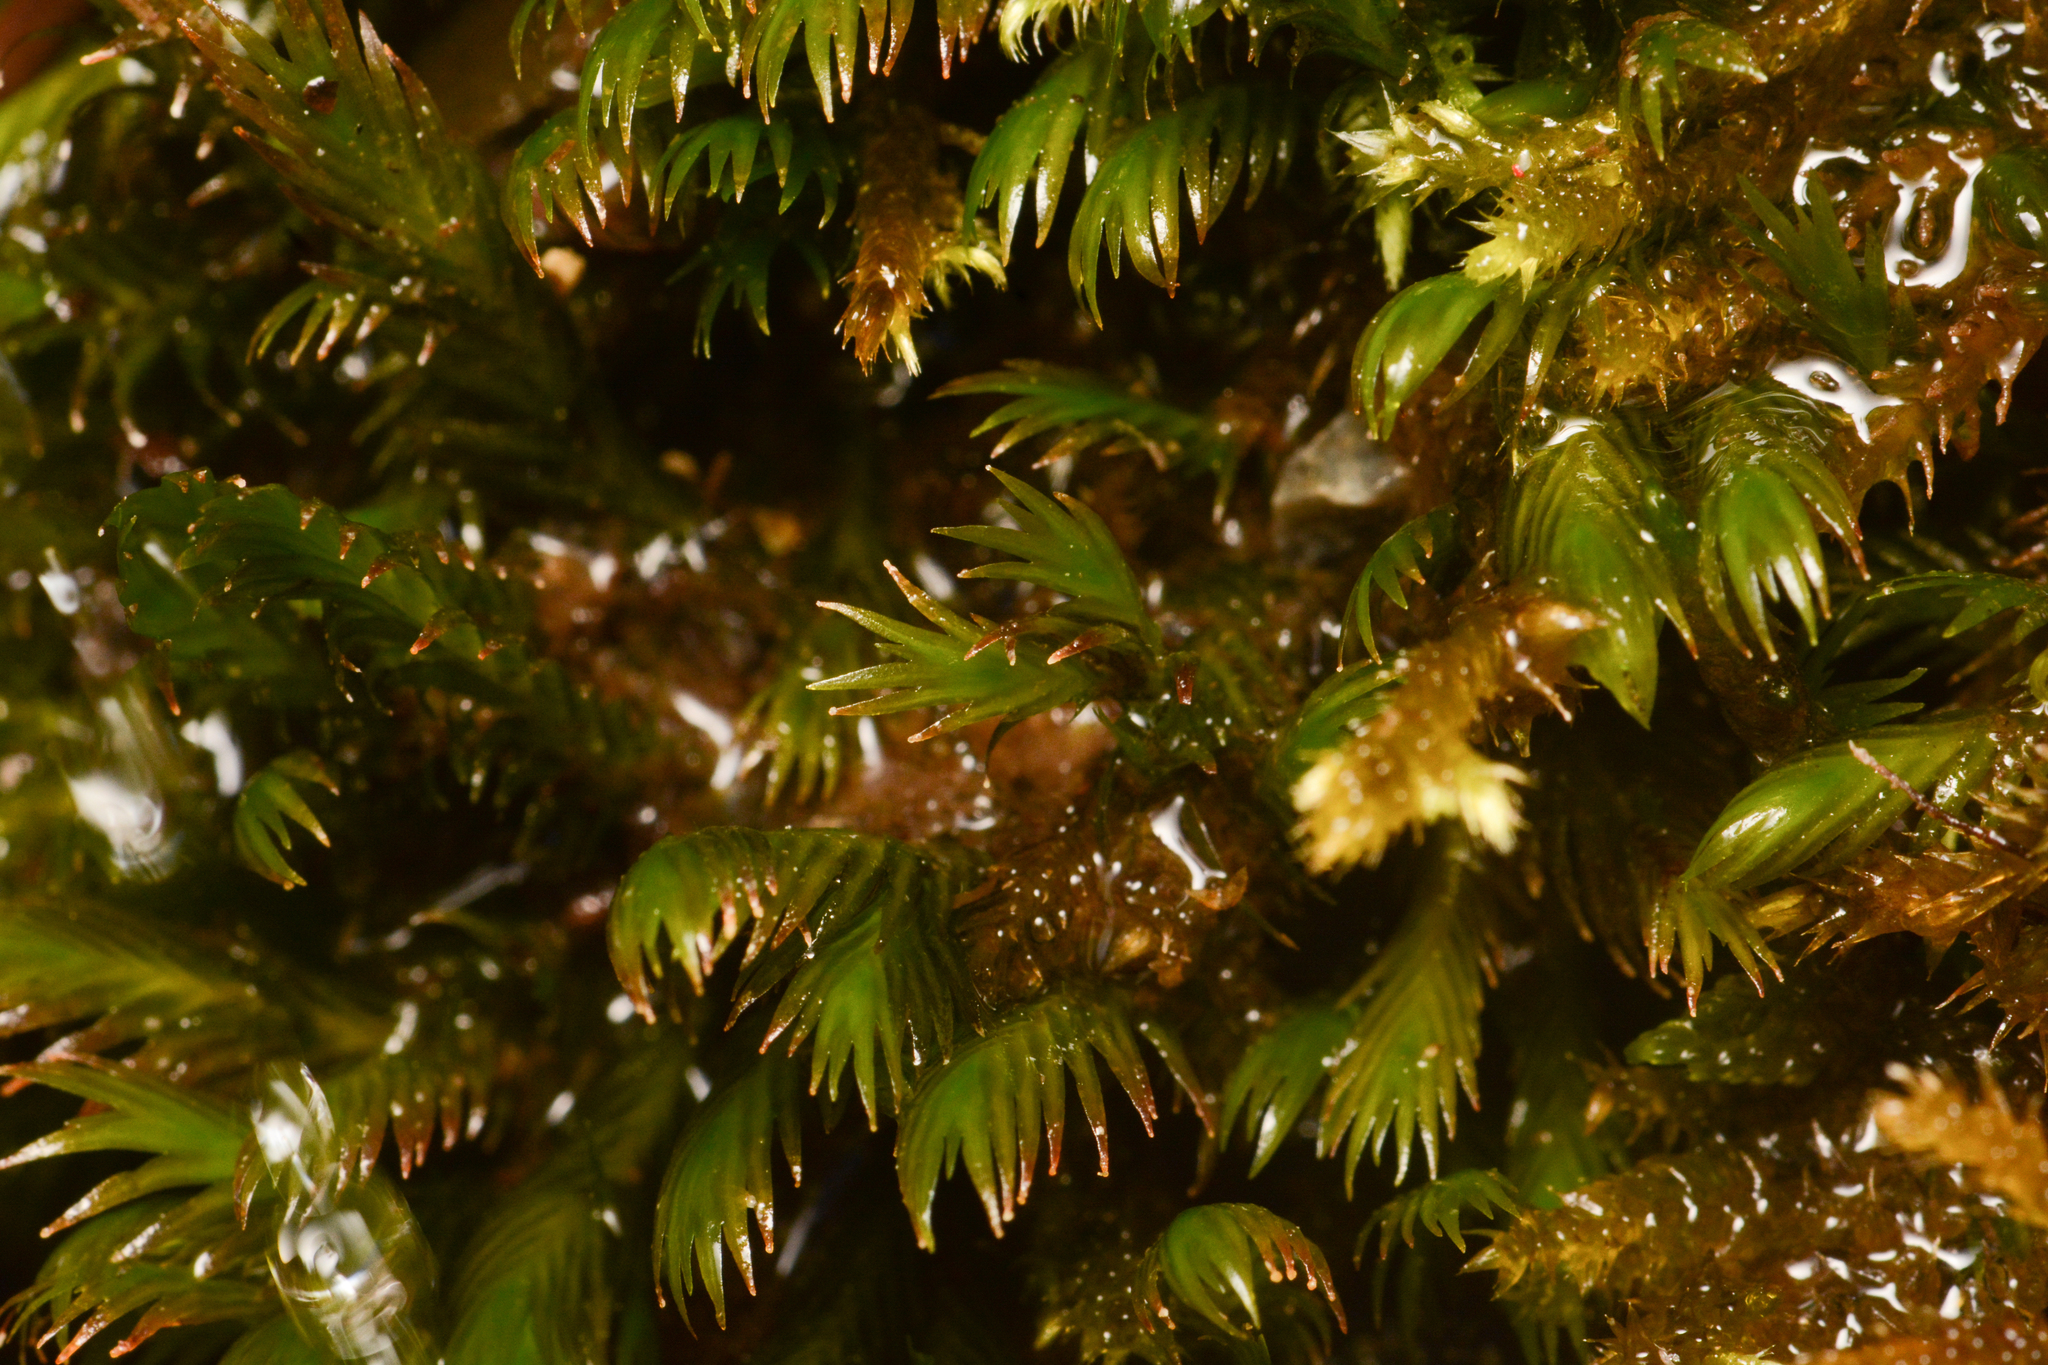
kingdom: Plantae
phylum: Bryophyta
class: Bryopsida
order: Dicranales
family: Fissidentaceae
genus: Fissidens
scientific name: Fissidens adianthoides
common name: Maidenhair pocket moss
